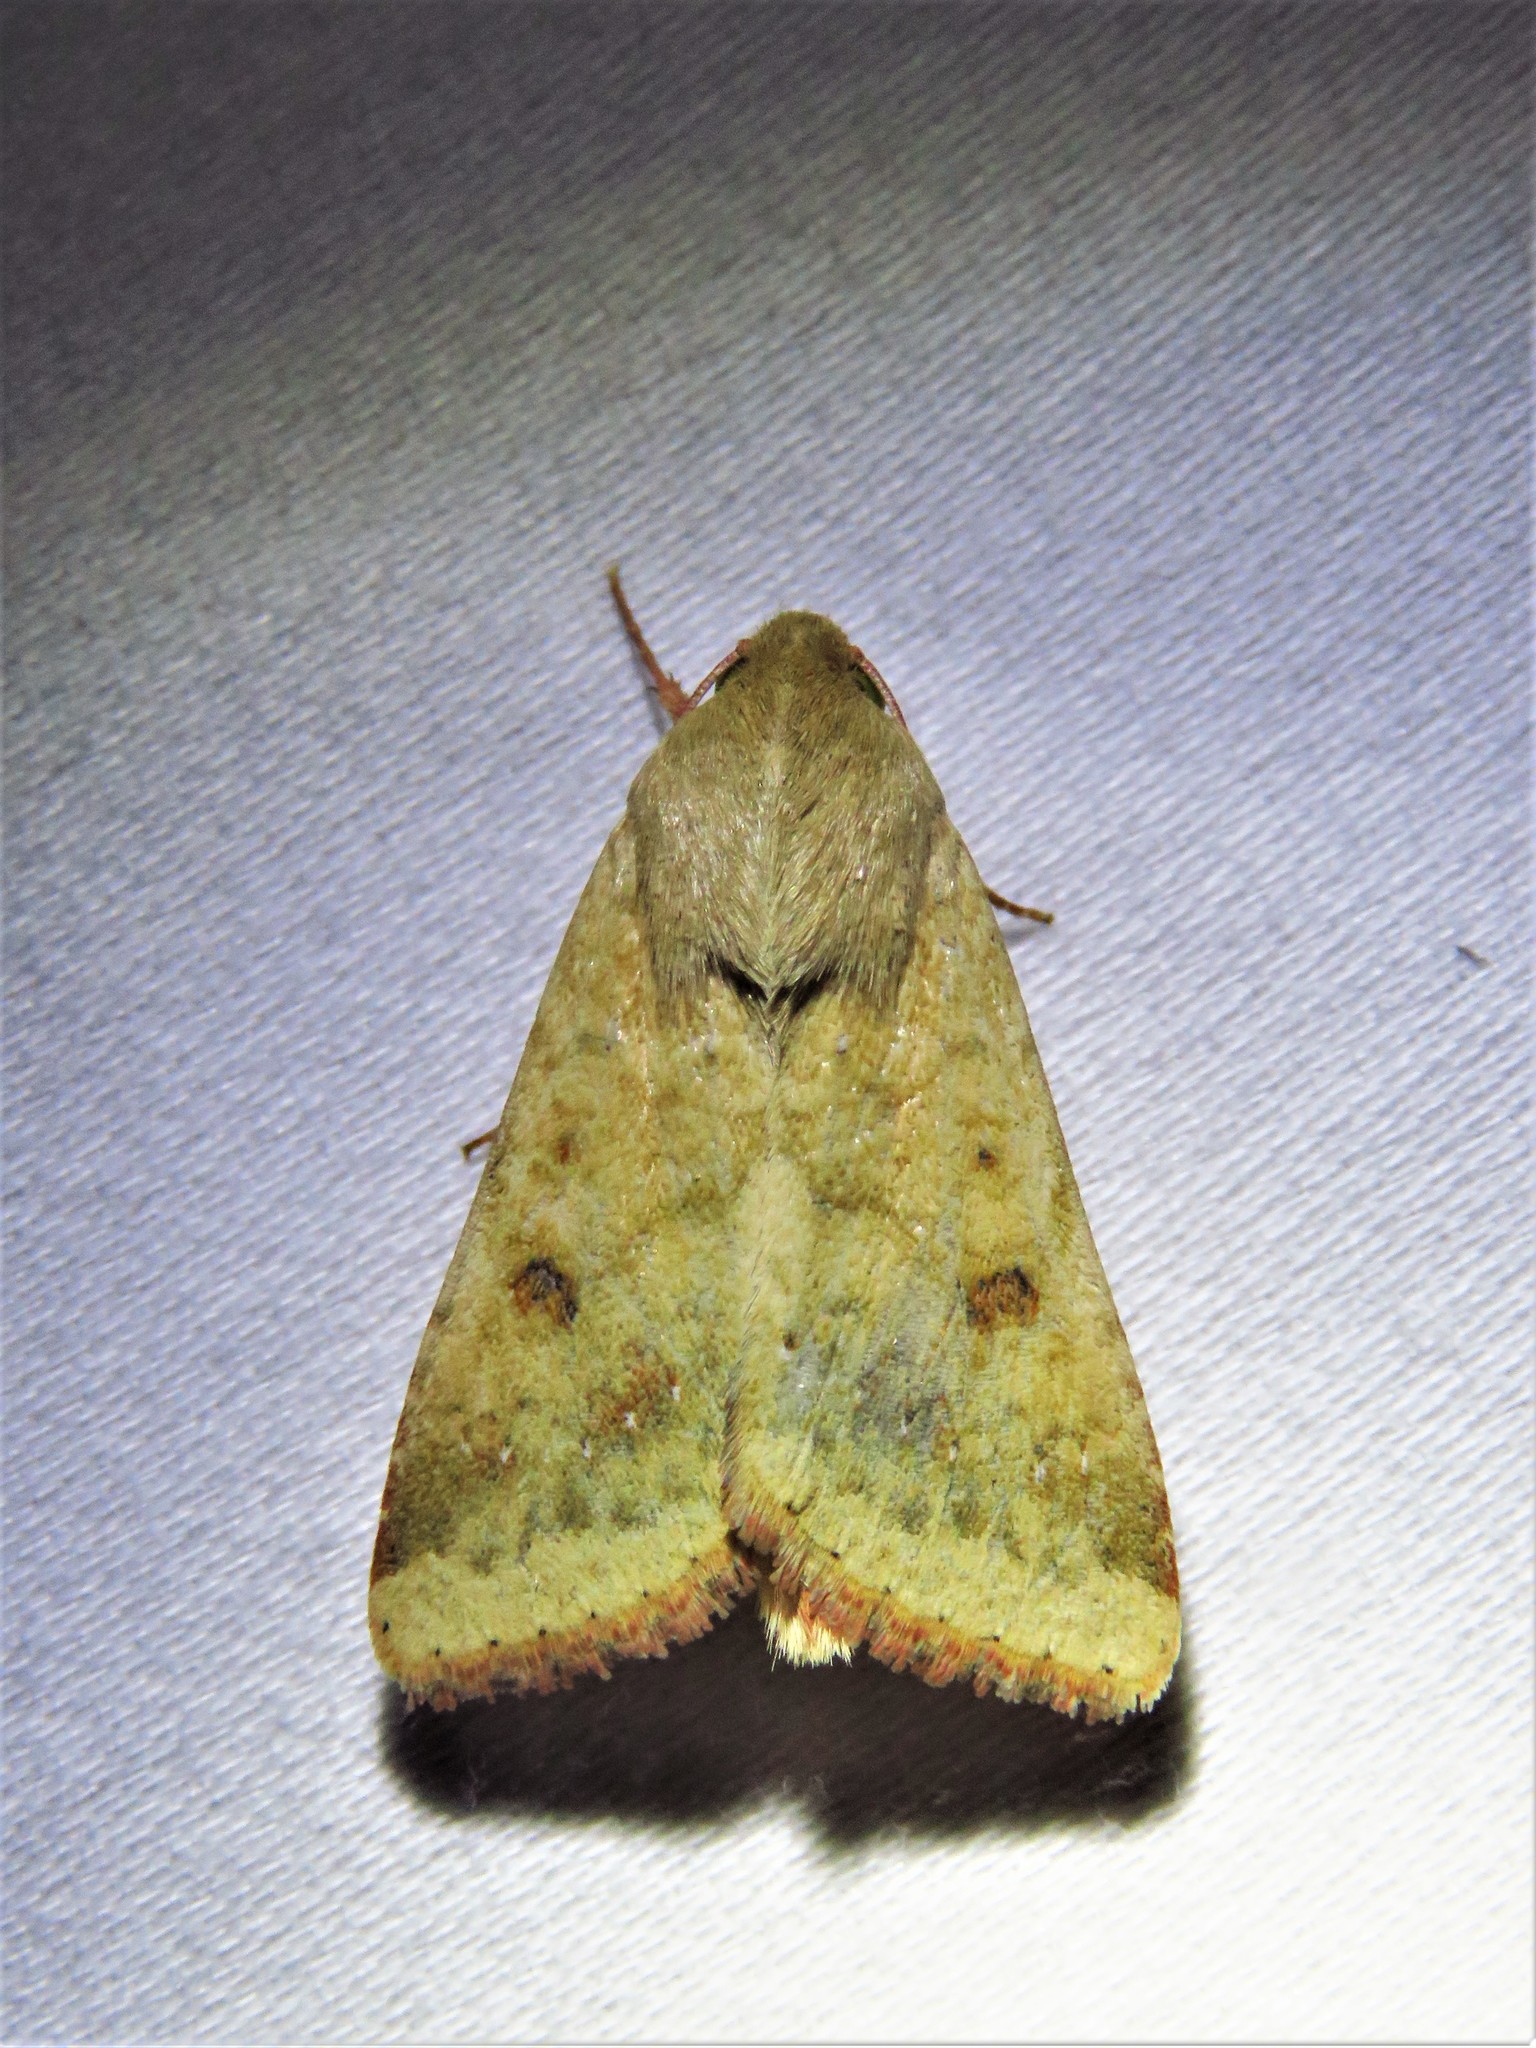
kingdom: Animalia
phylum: Arthropoda
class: Insecta
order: Lepidoptera
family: Noctuidae
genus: Helicoverpa
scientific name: Helicoverpa zea
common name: Bollworm
